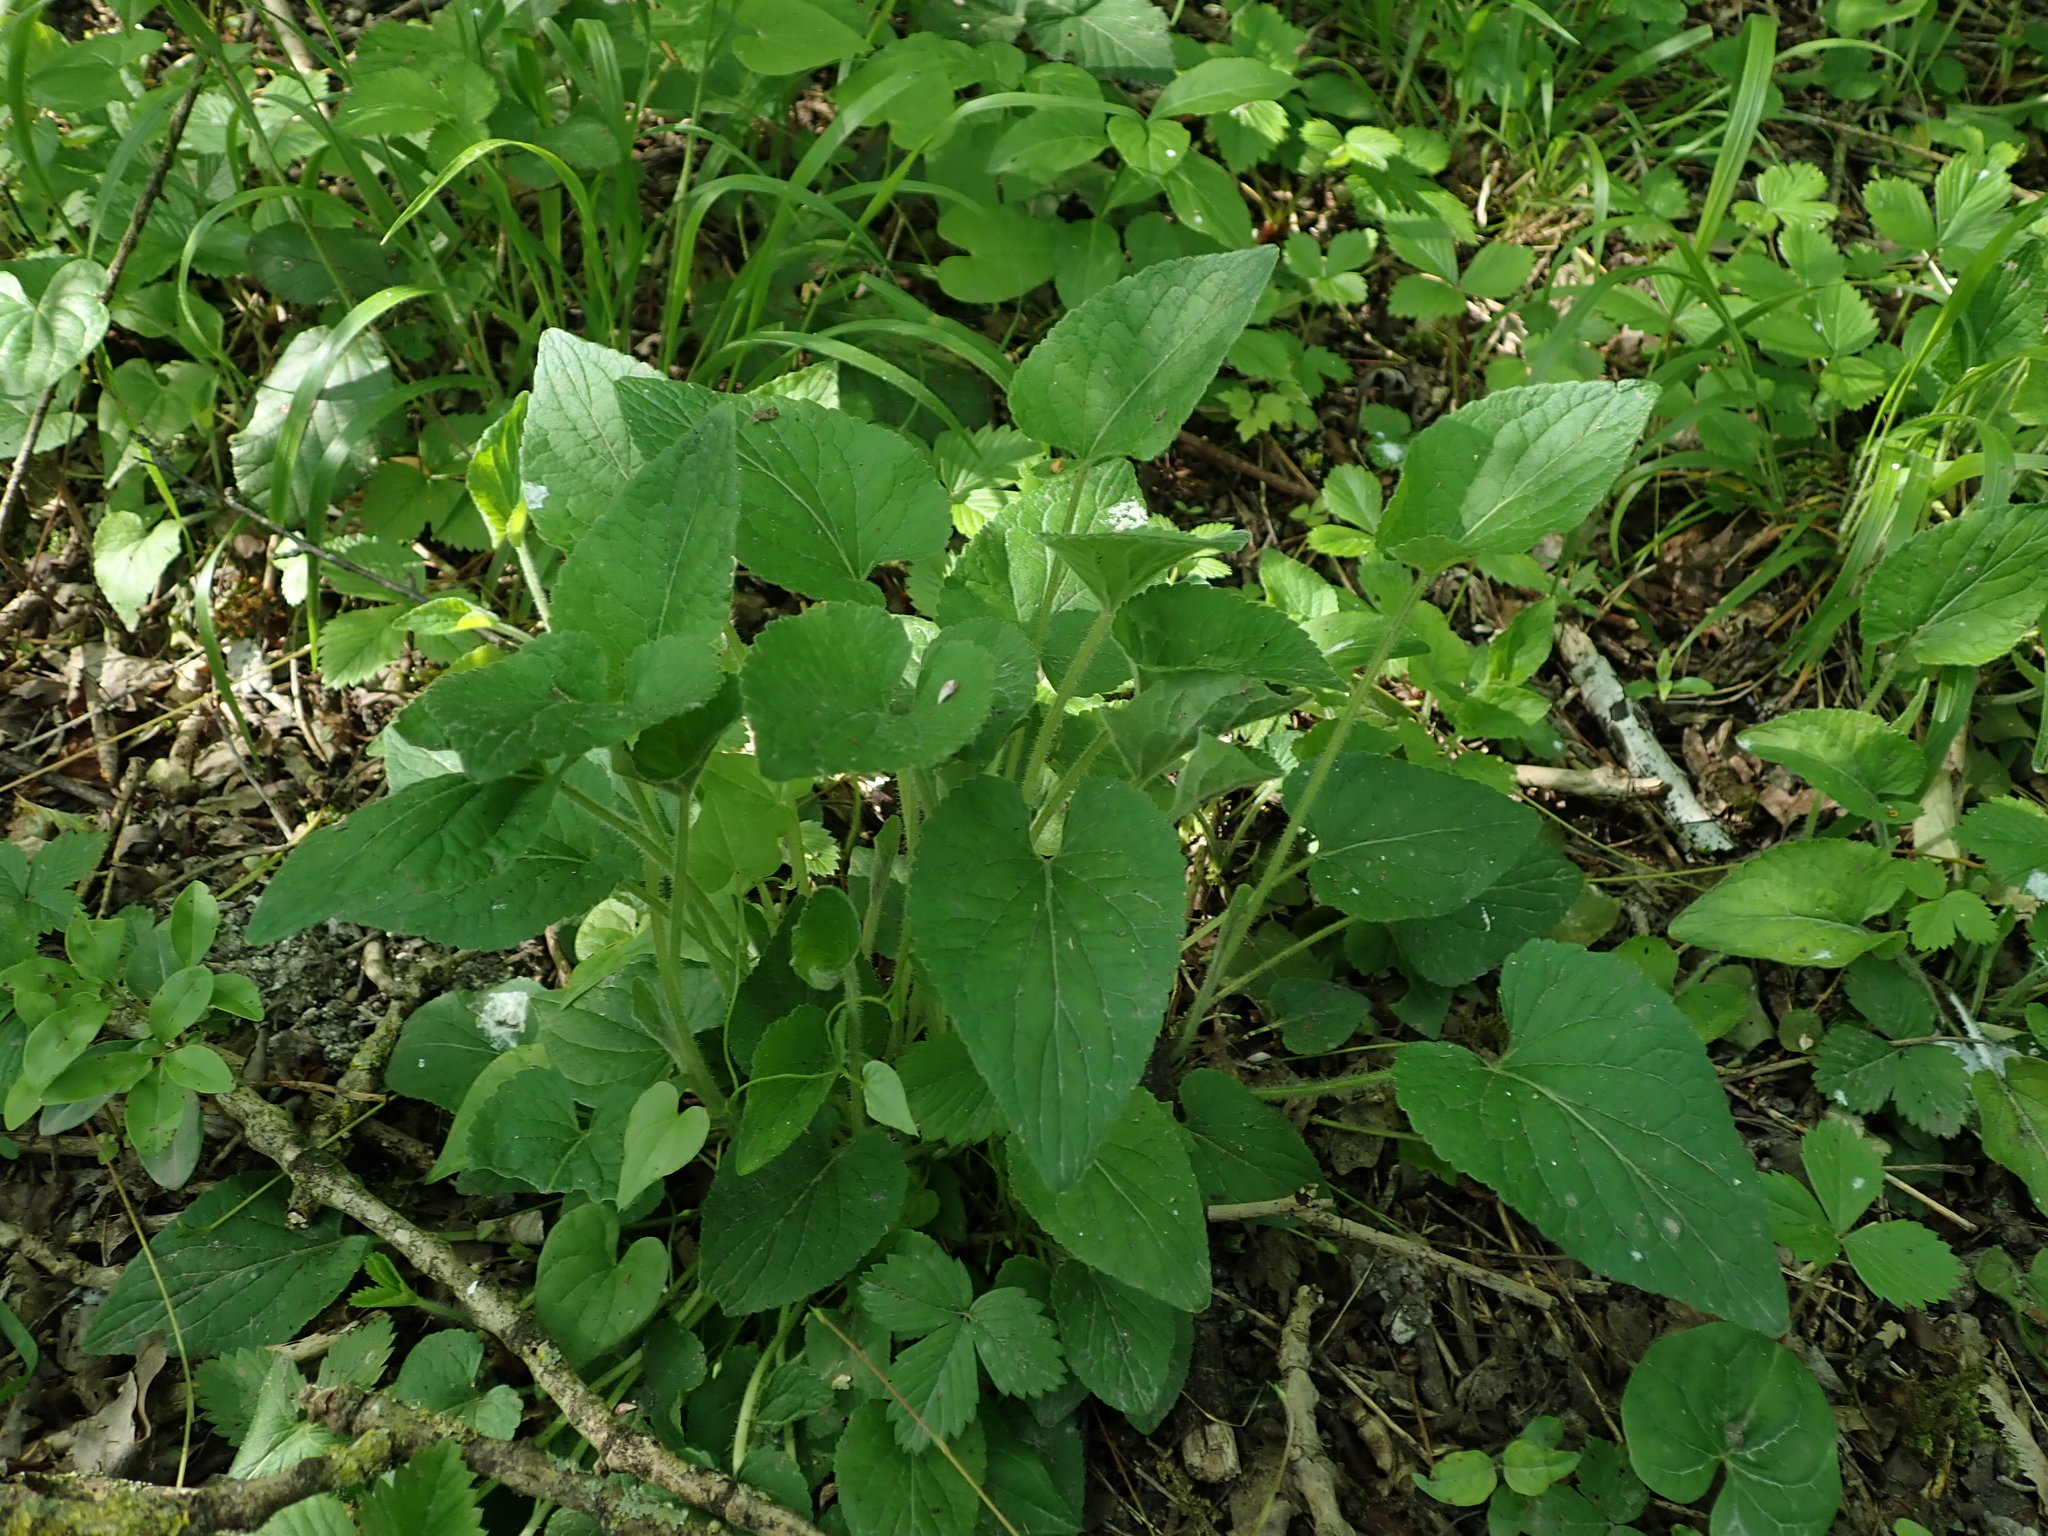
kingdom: Plantae
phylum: Tracheophyta
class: Magnoliopsida
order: Malpighiales
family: Violaceae
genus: Viola
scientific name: Viola hirta
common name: Hairy violet
